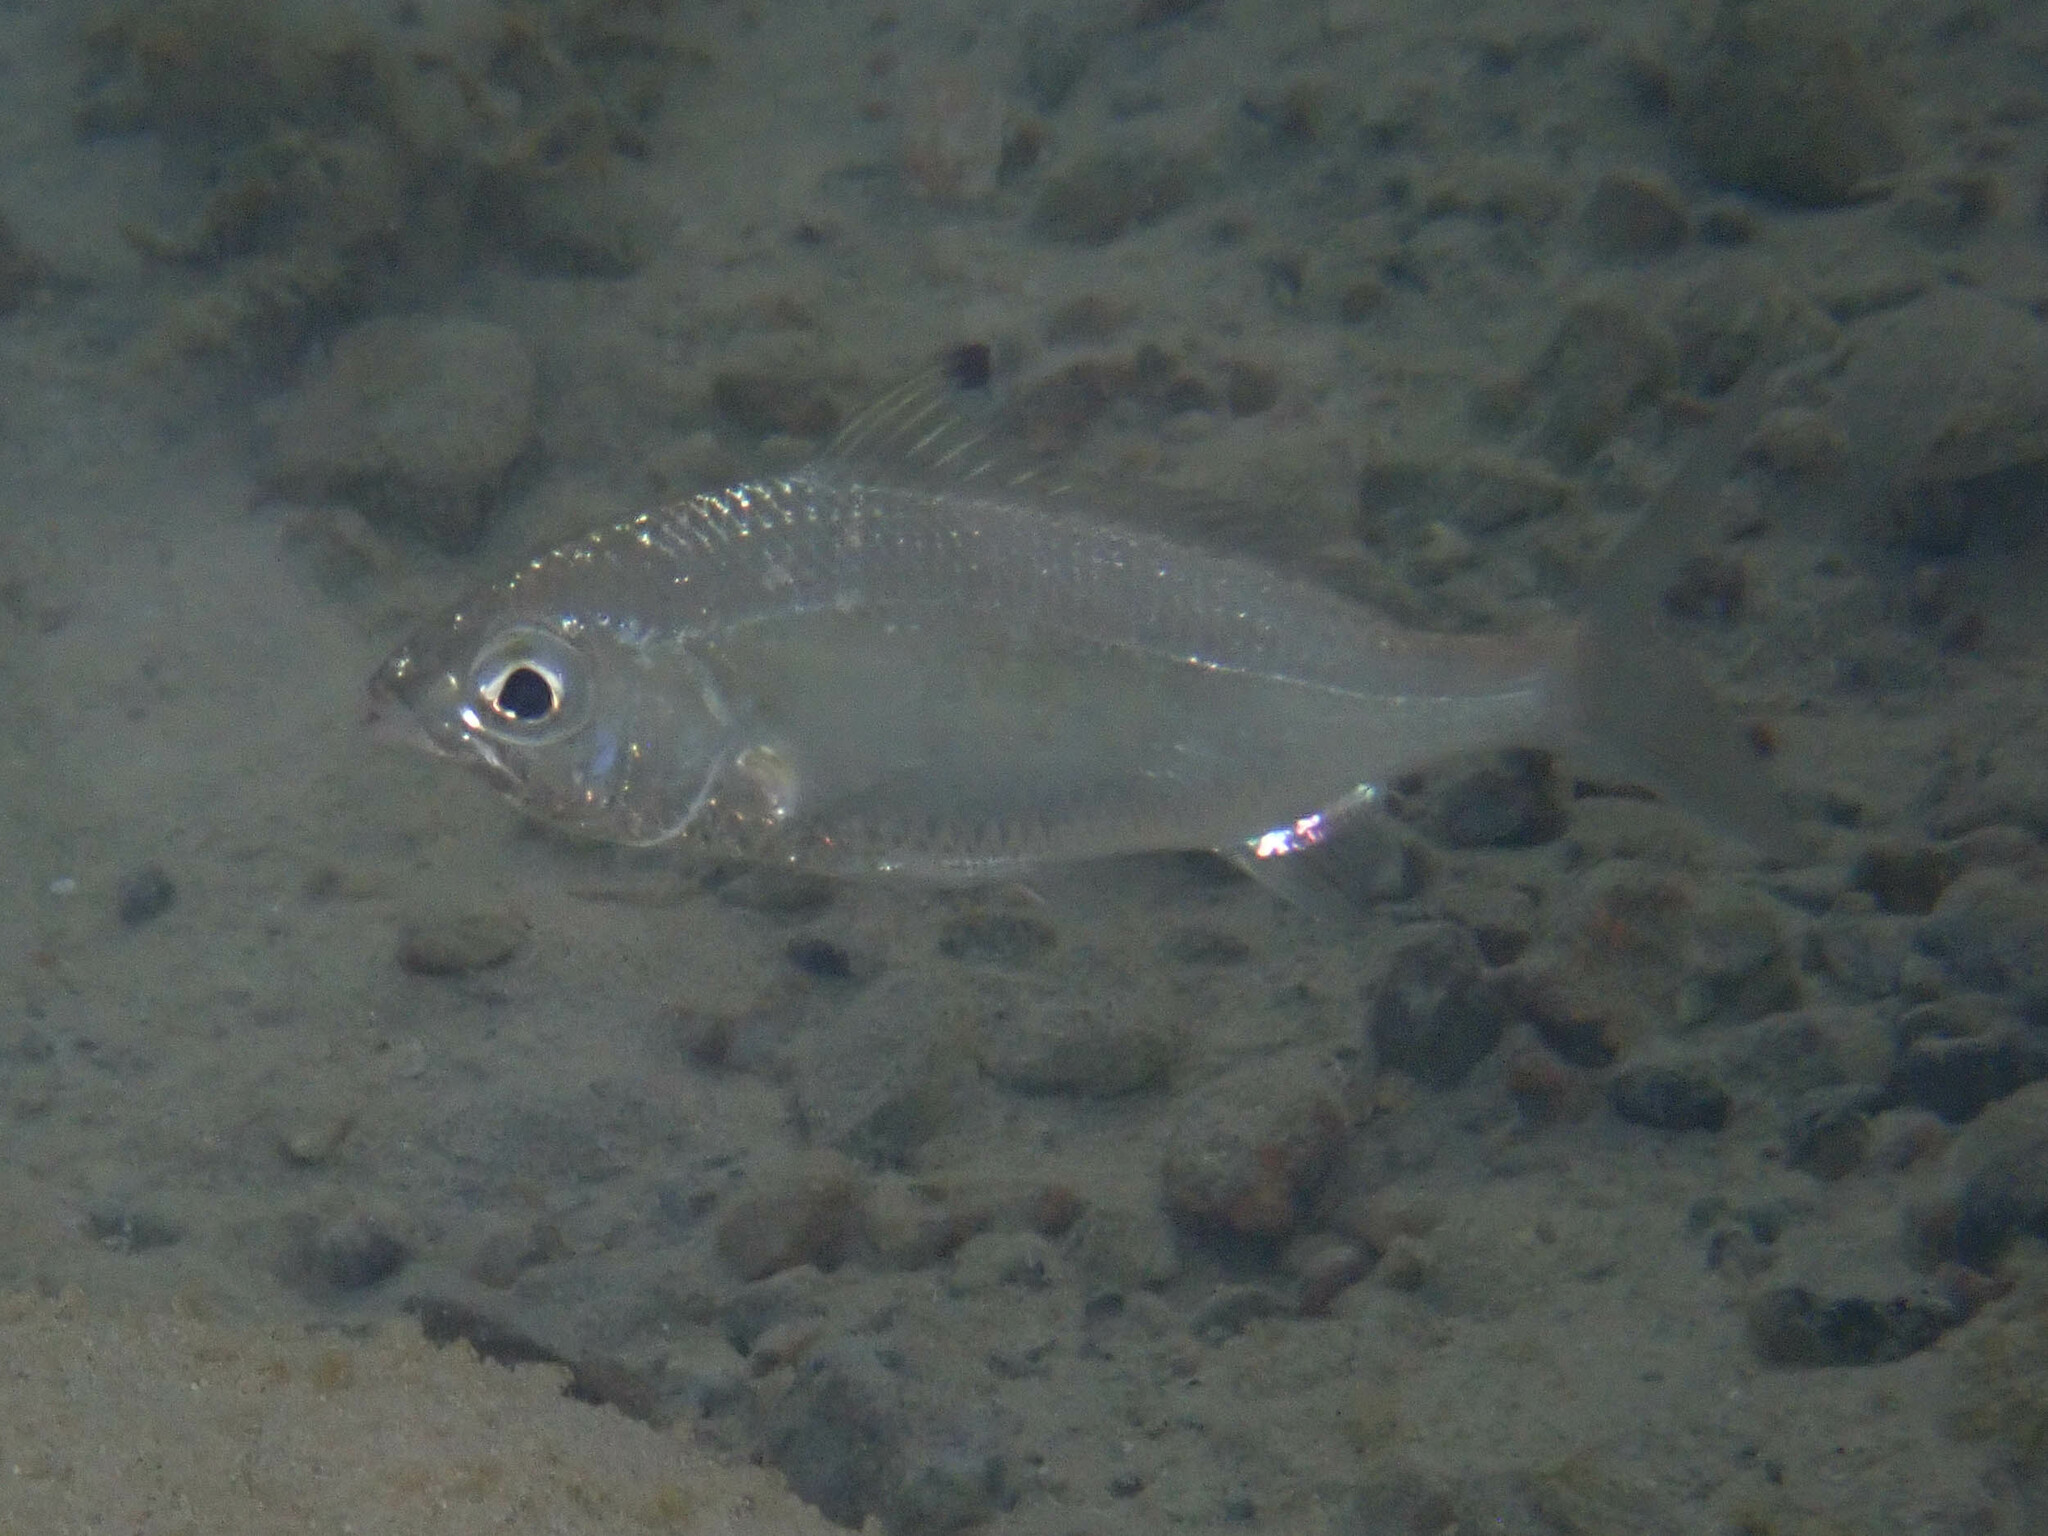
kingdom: Animalia
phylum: Chordata
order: Perciformes
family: Gerreidae
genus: Gerres
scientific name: Gerres oyena
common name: Common silver-biddy
